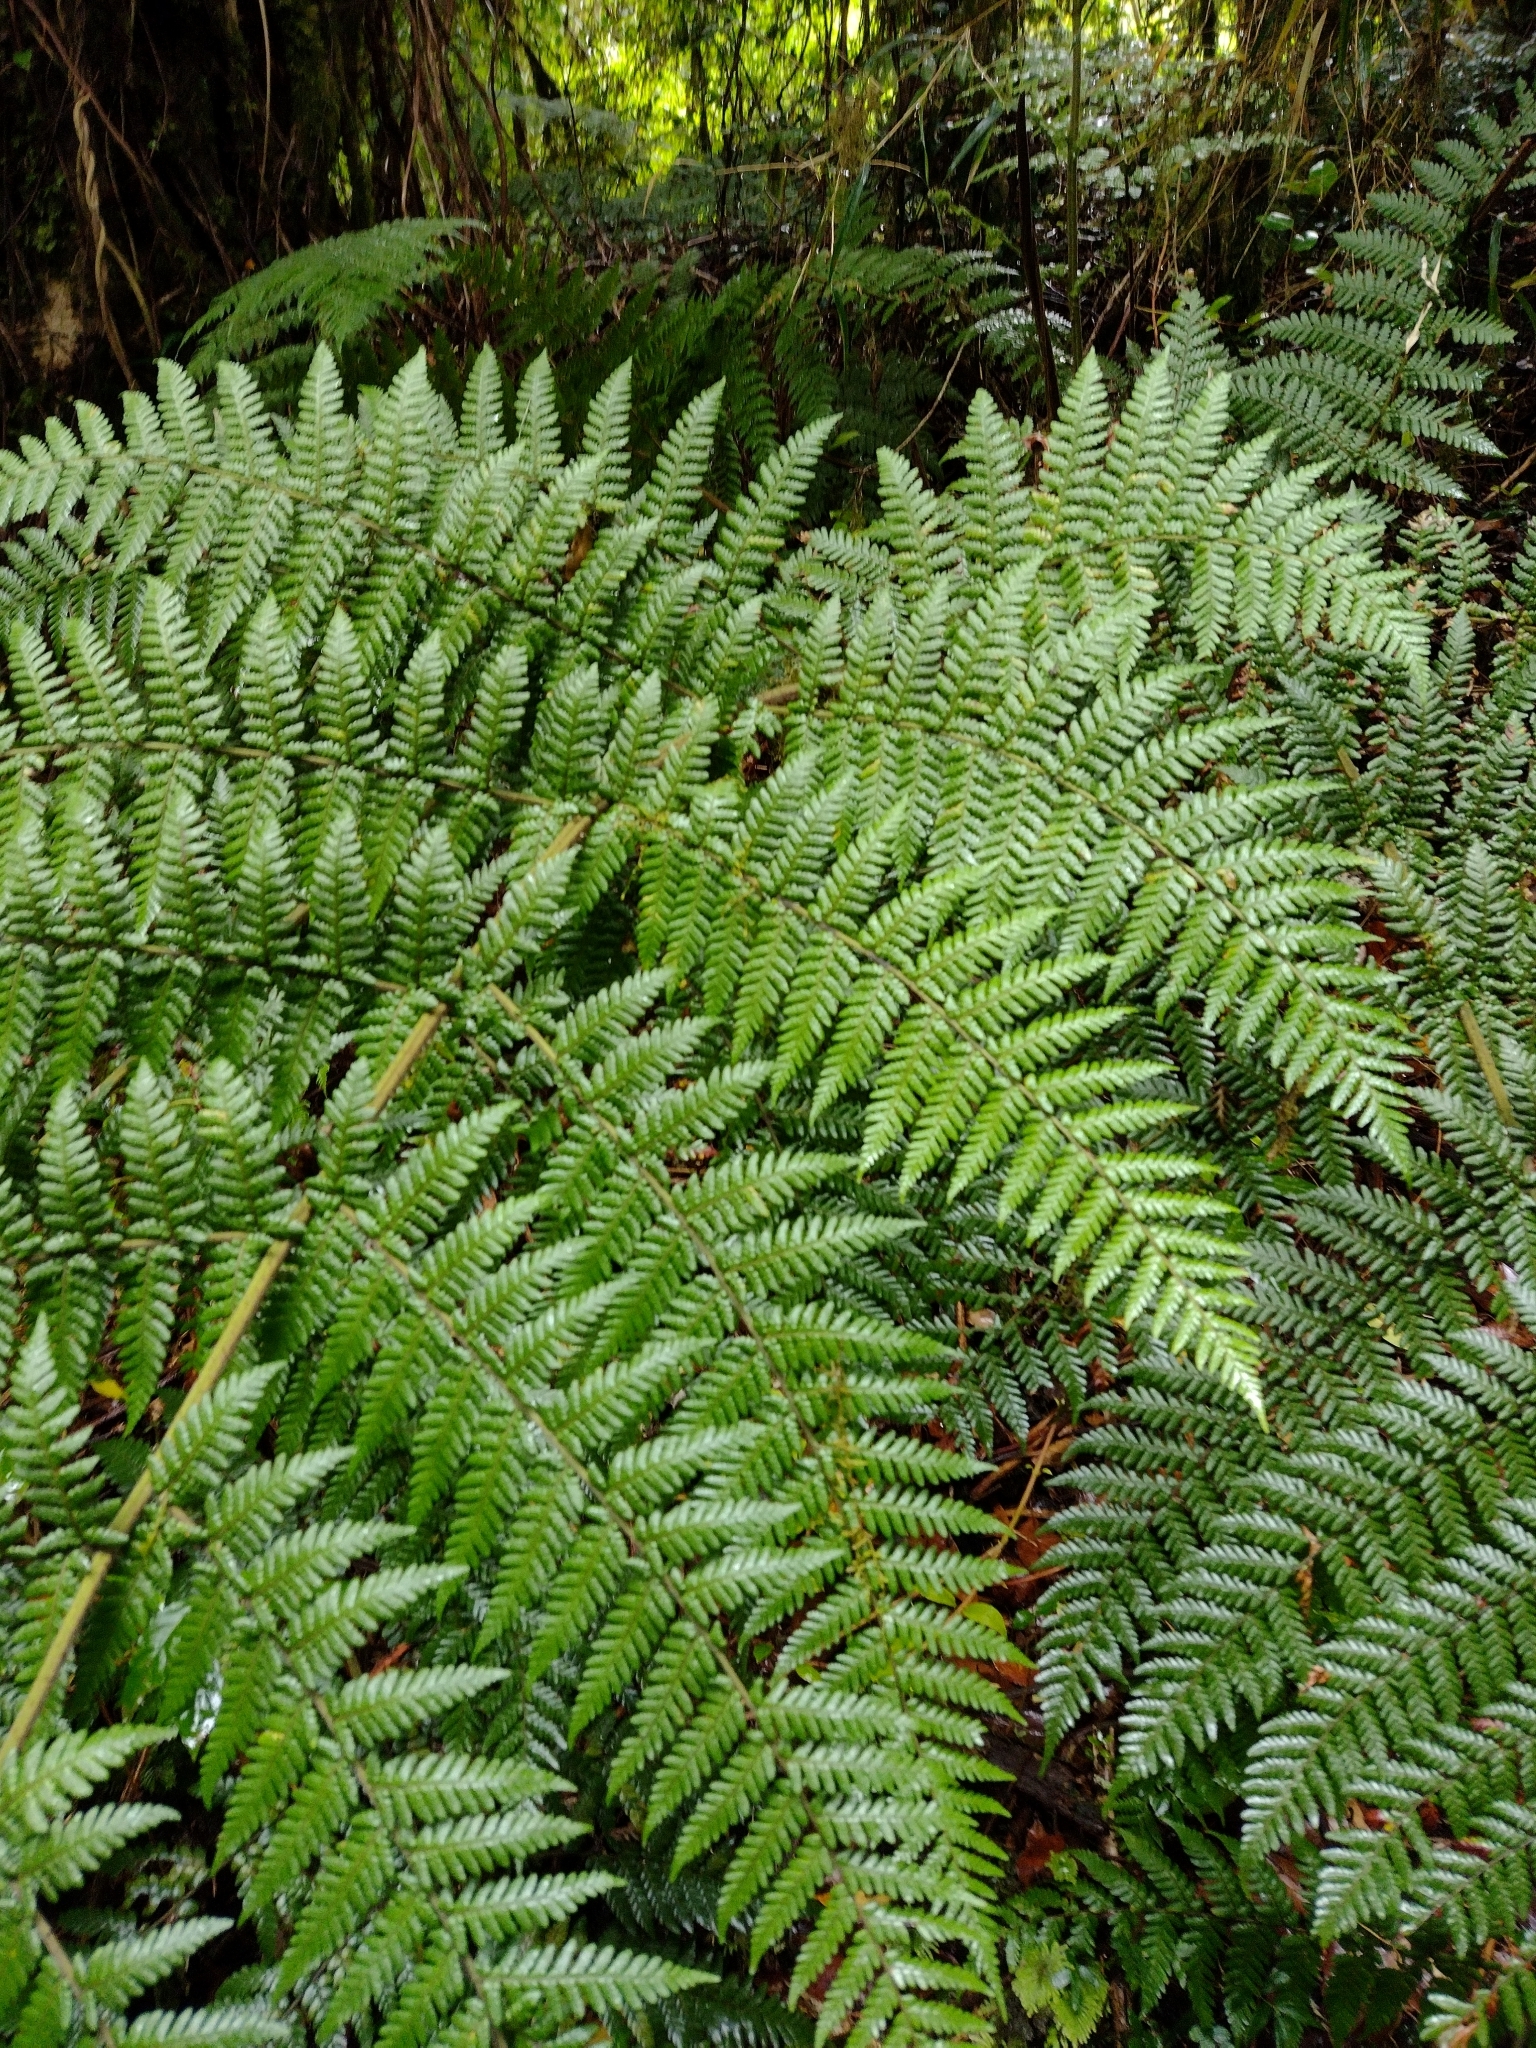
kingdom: Plantae
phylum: Tracheophyta
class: Polypodiopsida
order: Cyatheales
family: Dicksoniaceae
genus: Lophosoria
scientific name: Lophosoria quadripinnata
